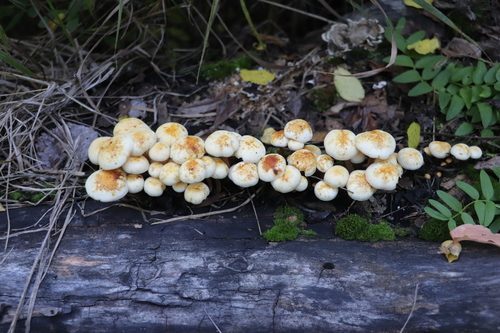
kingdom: Fungi
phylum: Basidiomycota
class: Agaricomycetes
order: Agaricales
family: Physalacriaceae
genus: Flammulina
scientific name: Flammulina velutipes
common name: Velvet shank
